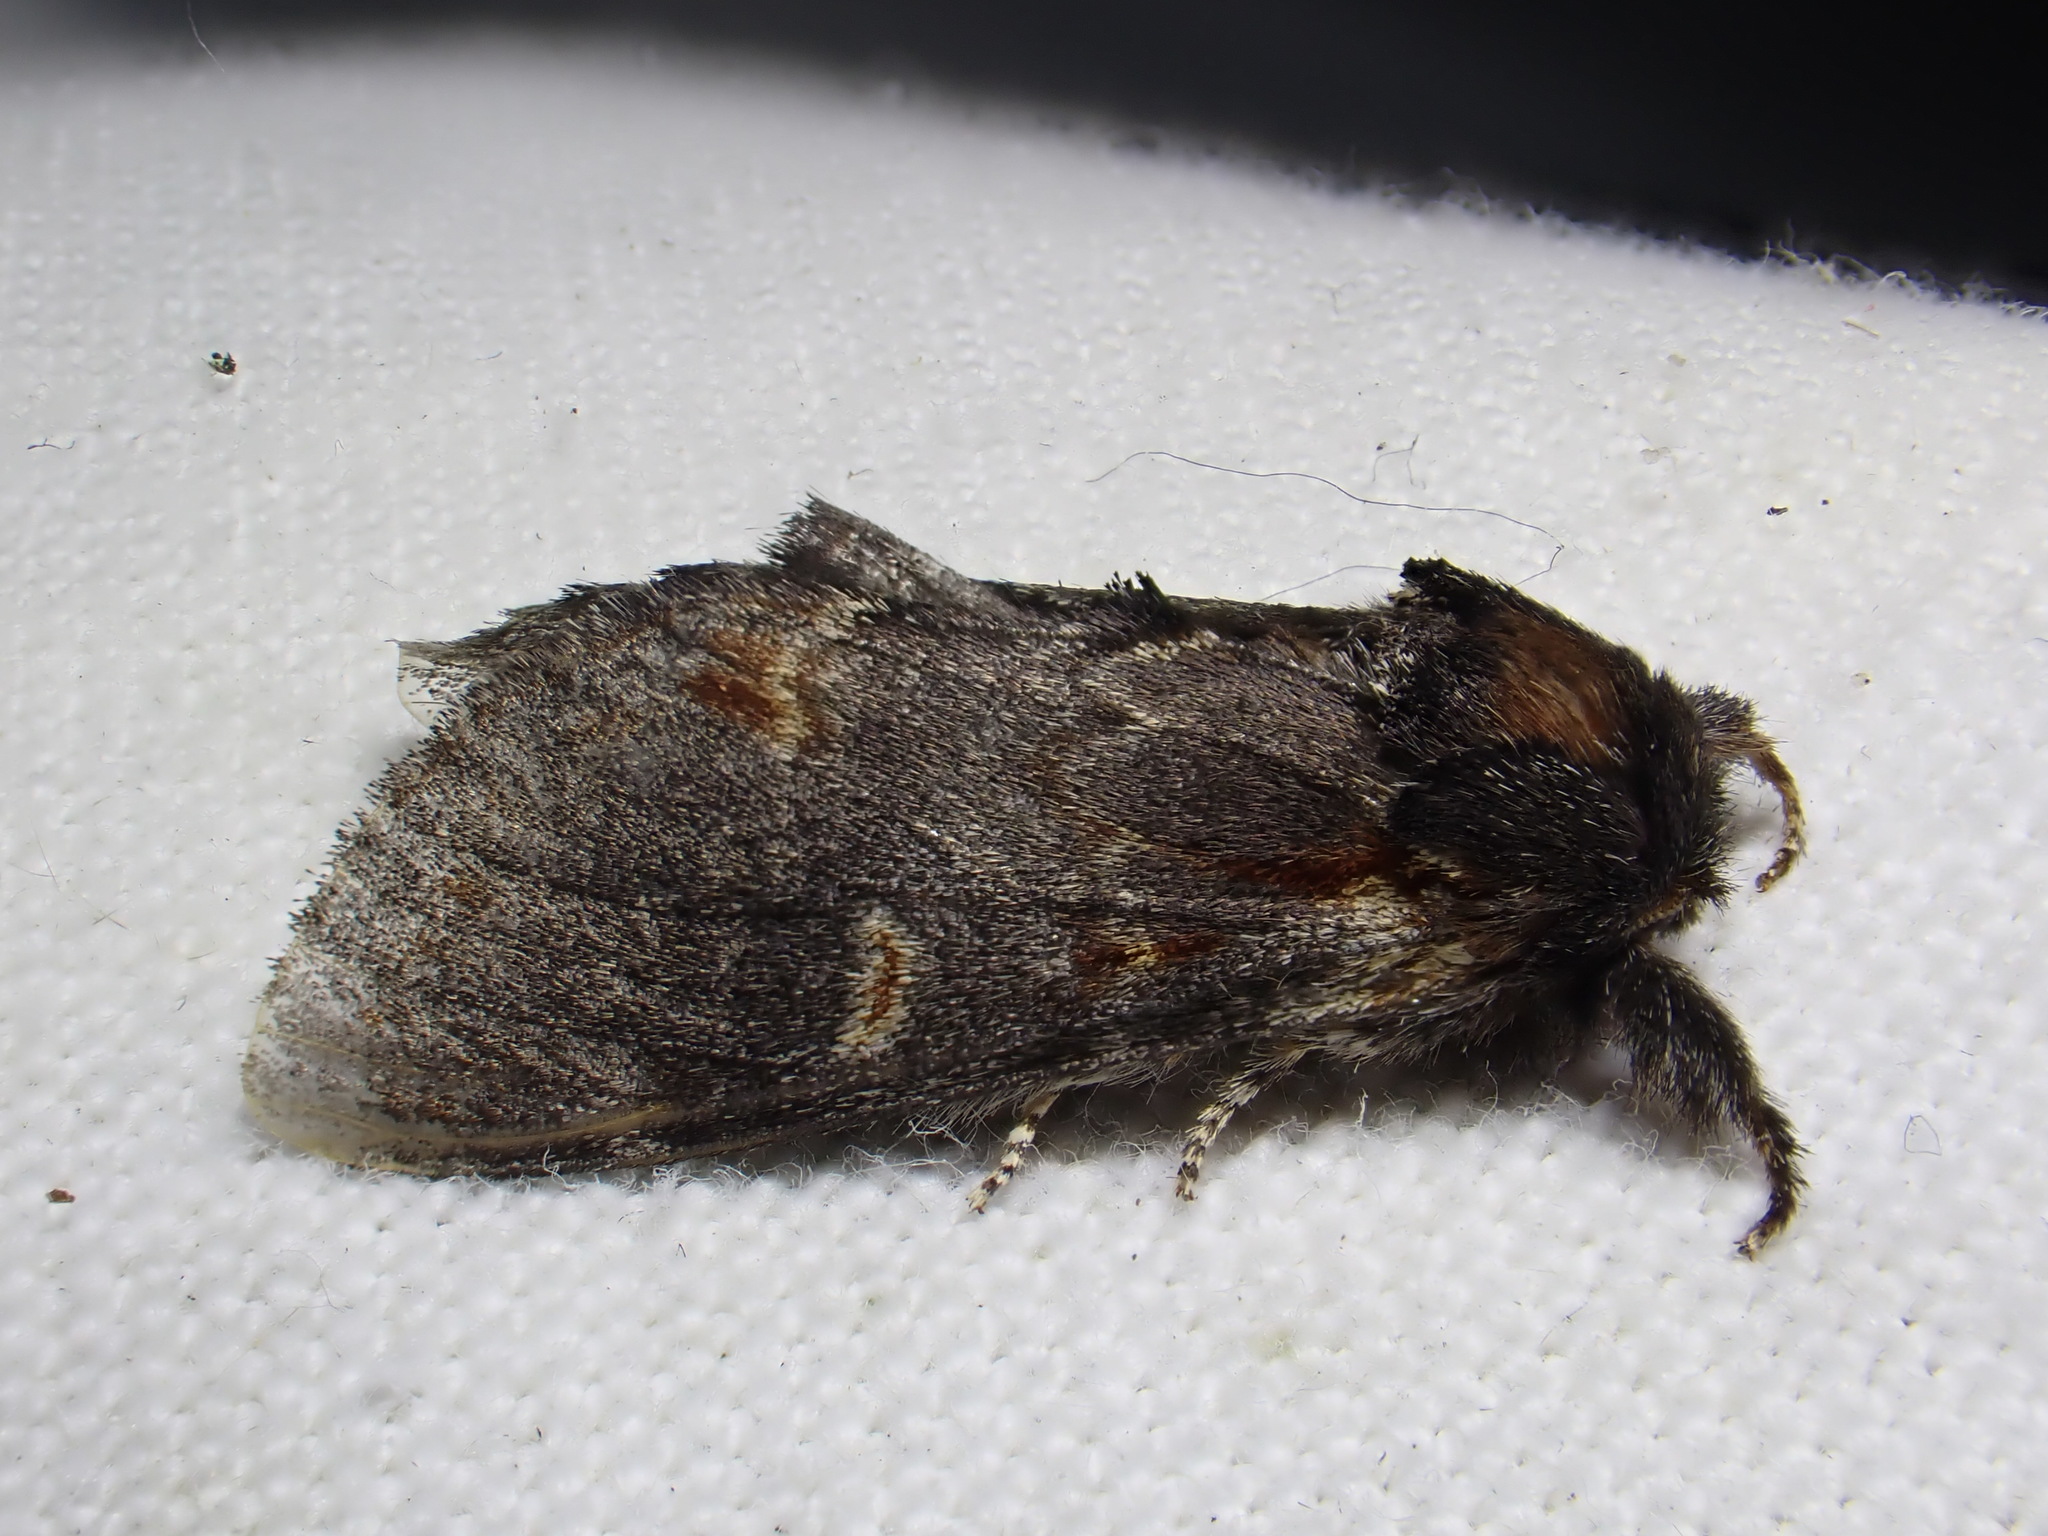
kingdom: Animalia
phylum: Arthropoda
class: Insecta
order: Lepidoptera
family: Notodontidae
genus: Notodonta
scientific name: Notodonta dromedarius
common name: Iron prominent
